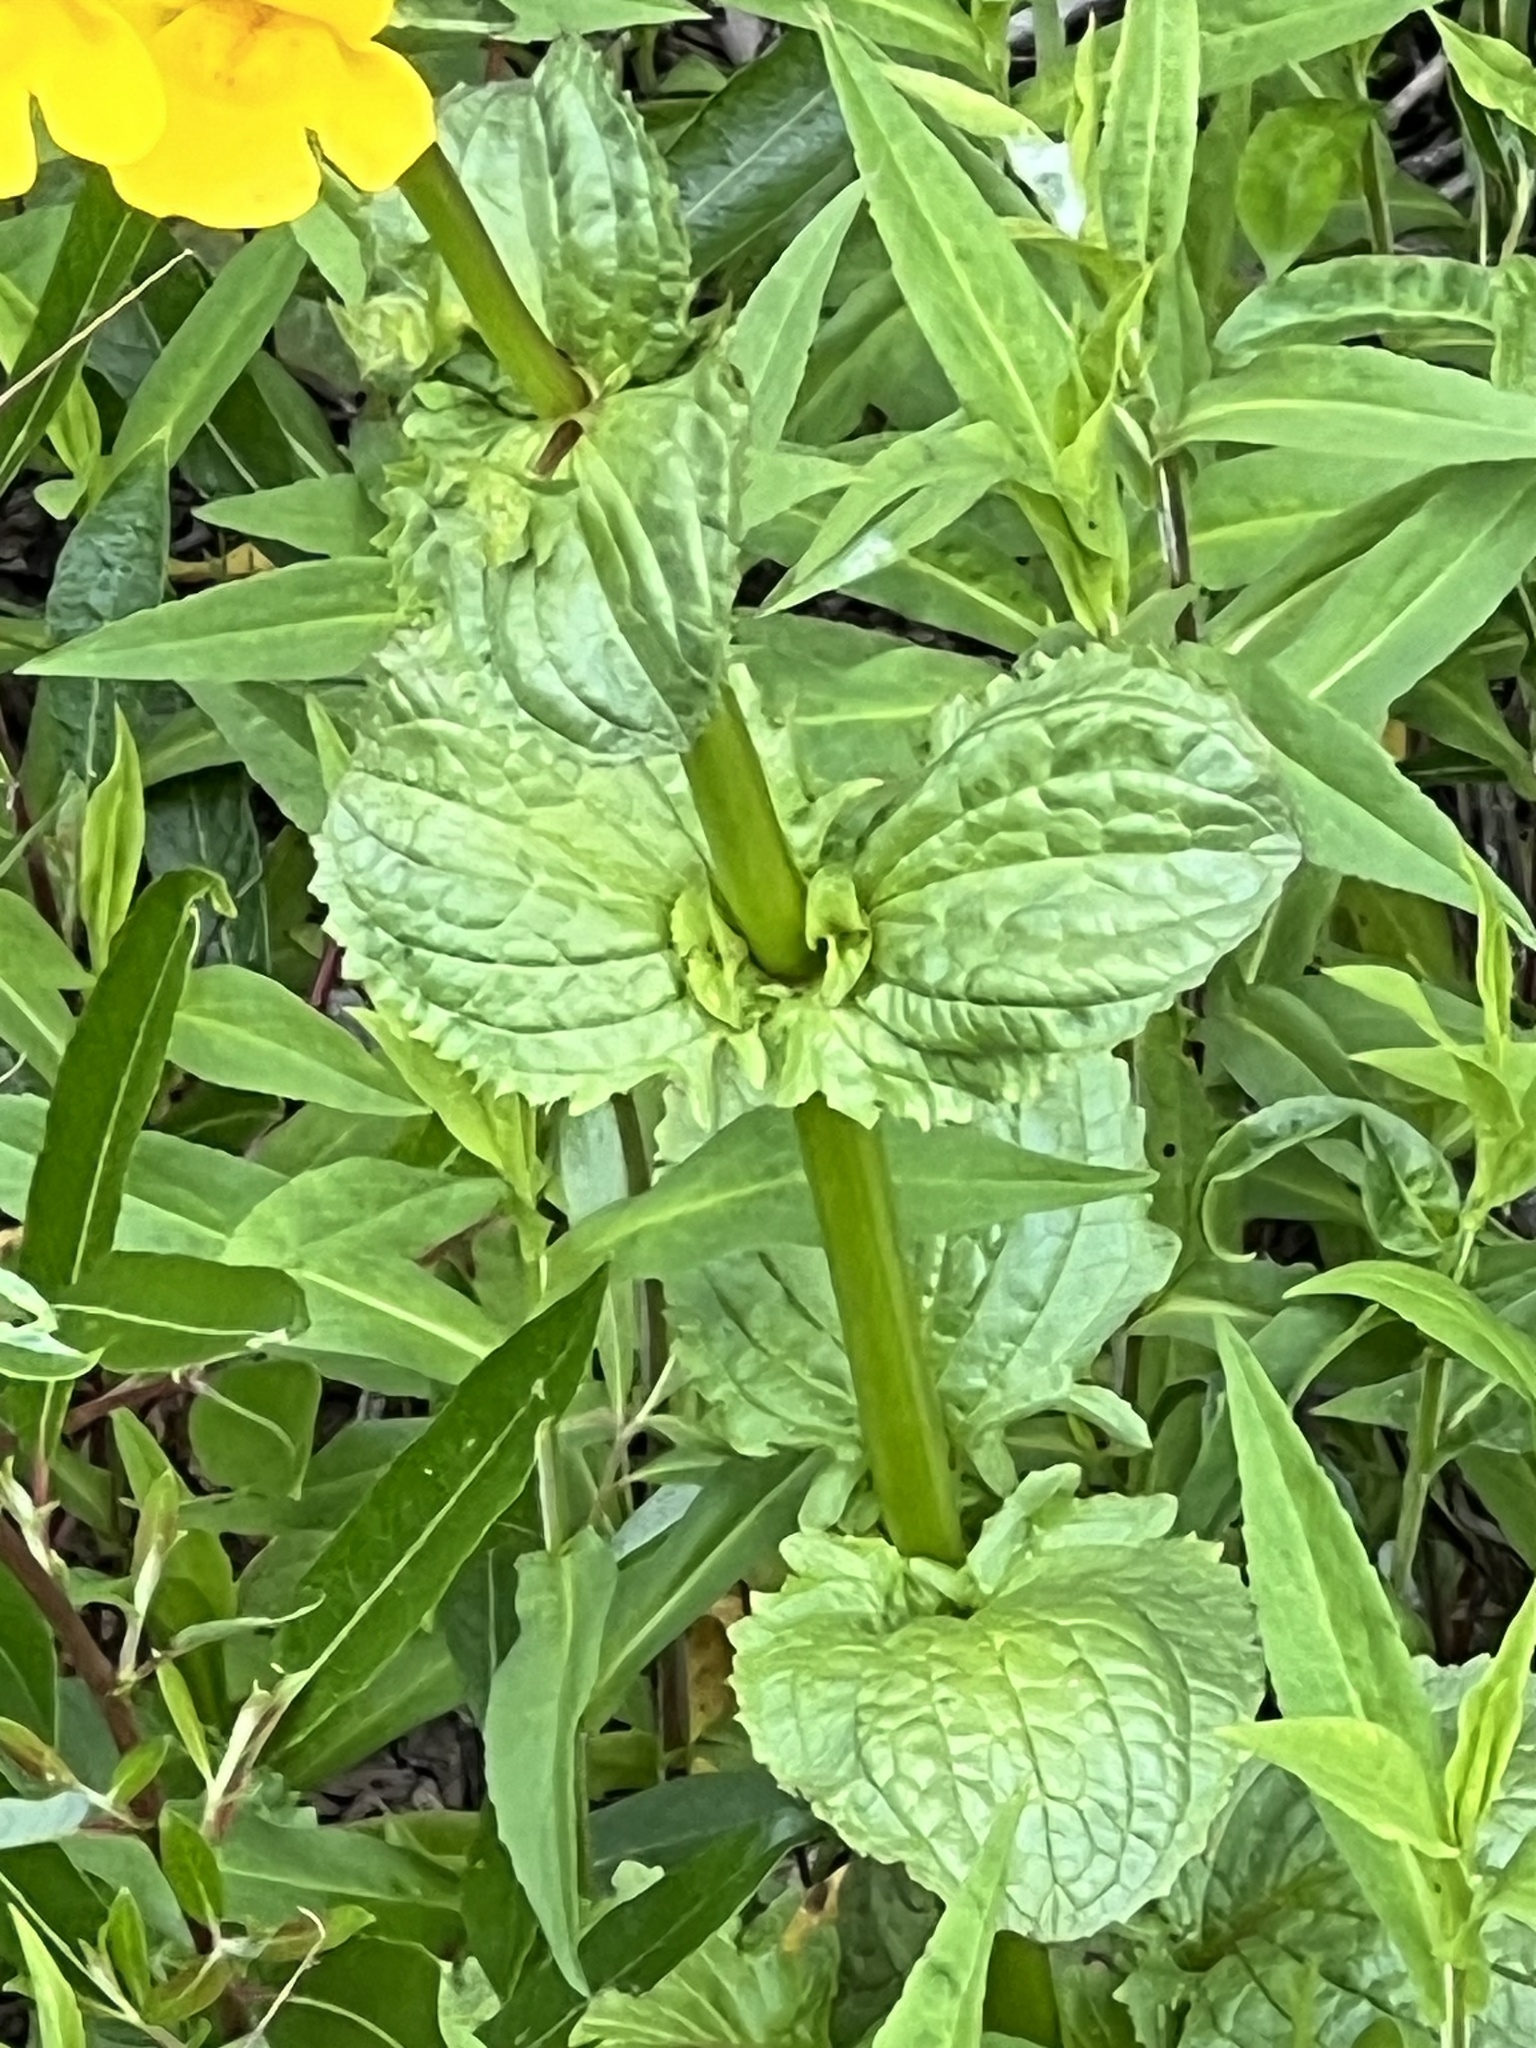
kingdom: Plantae
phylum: Tracheophyta
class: Magnoliopsida
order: Lamiales
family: Phrymaceae
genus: Erythranthe
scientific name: Erythranthe grandis
